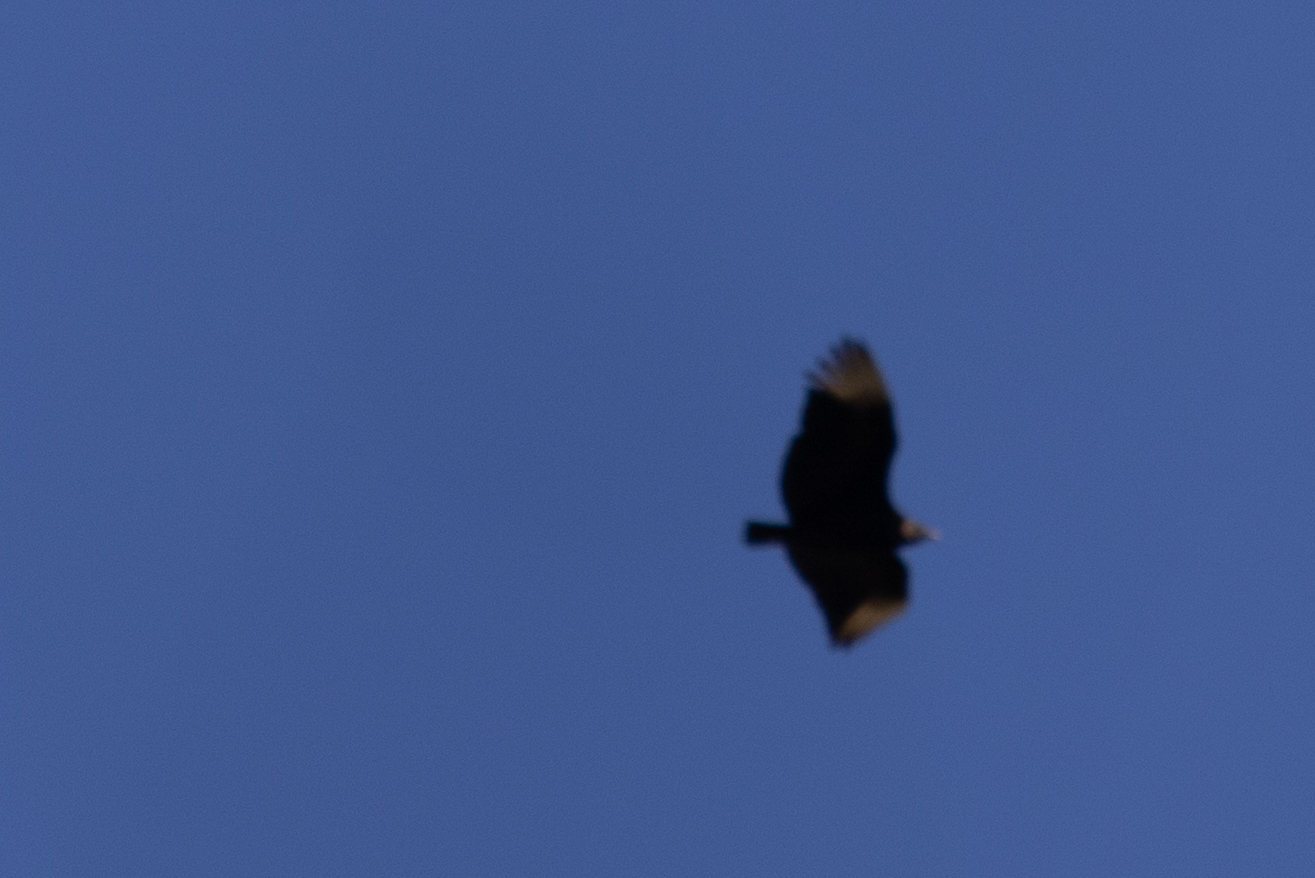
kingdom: Animalia
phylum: Chordata
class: Aves
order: Accipitriformes
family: Cathartidae
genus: Coragyps
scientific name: Coragyps atratus
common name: Black vulture
